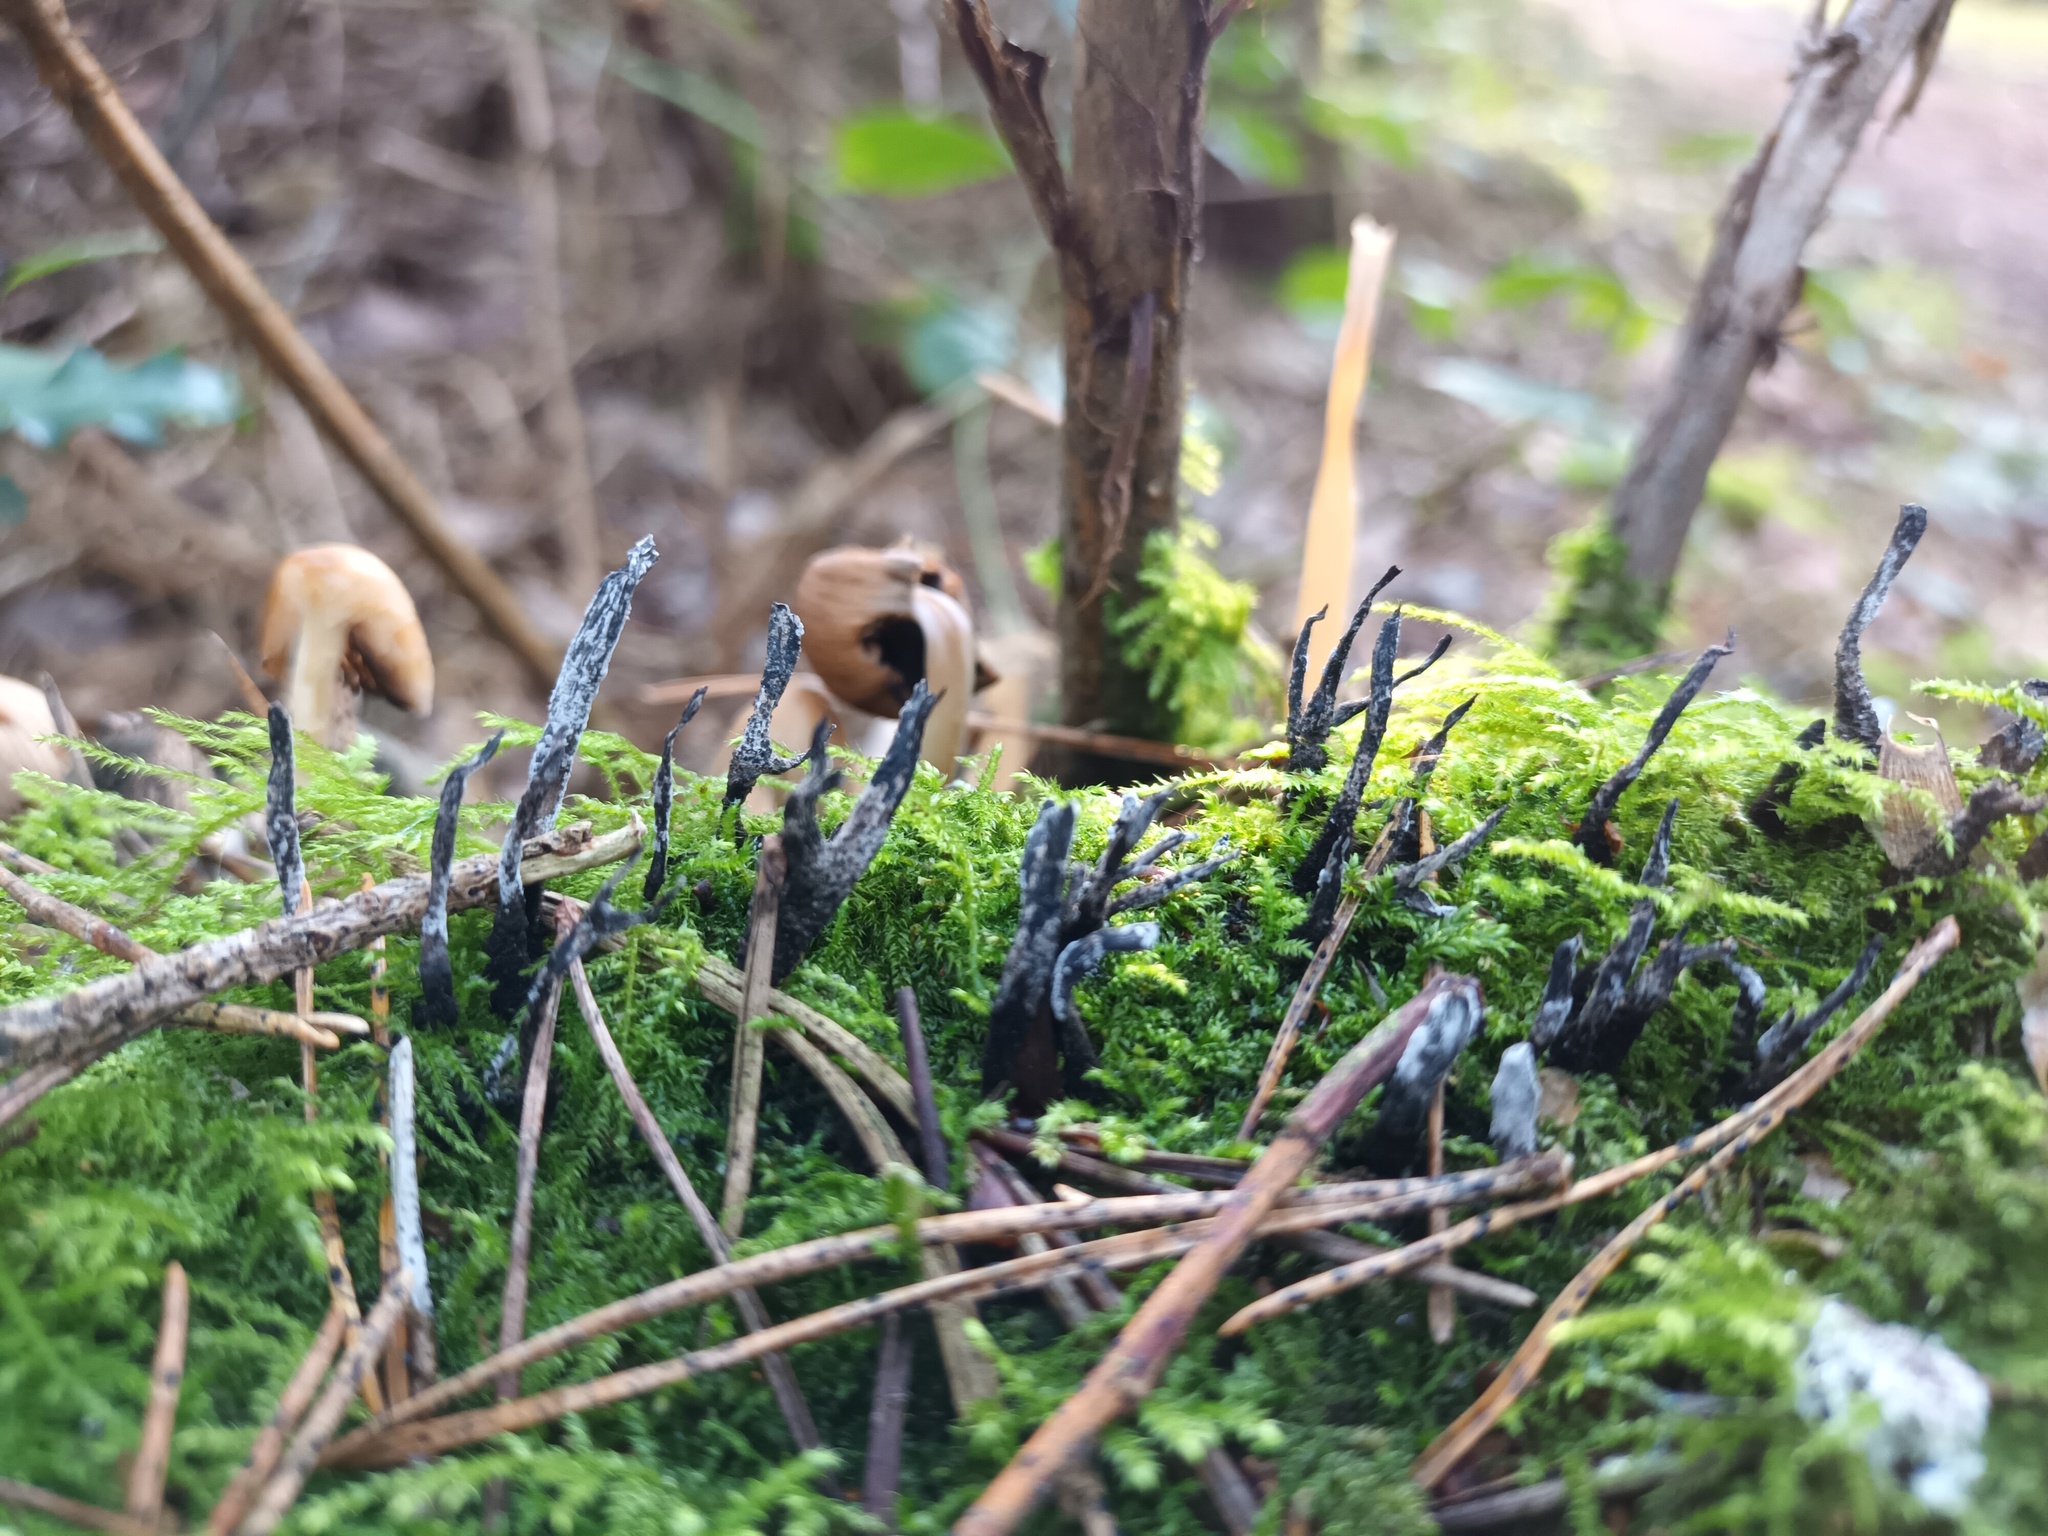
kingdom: Fungi
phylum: Ascomycota
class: Sordariomycetes
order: Xylariales
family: Xylariaceae
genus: Xylaria
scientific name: Xylaria hypoxylon
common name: Candle-snuff fungus
